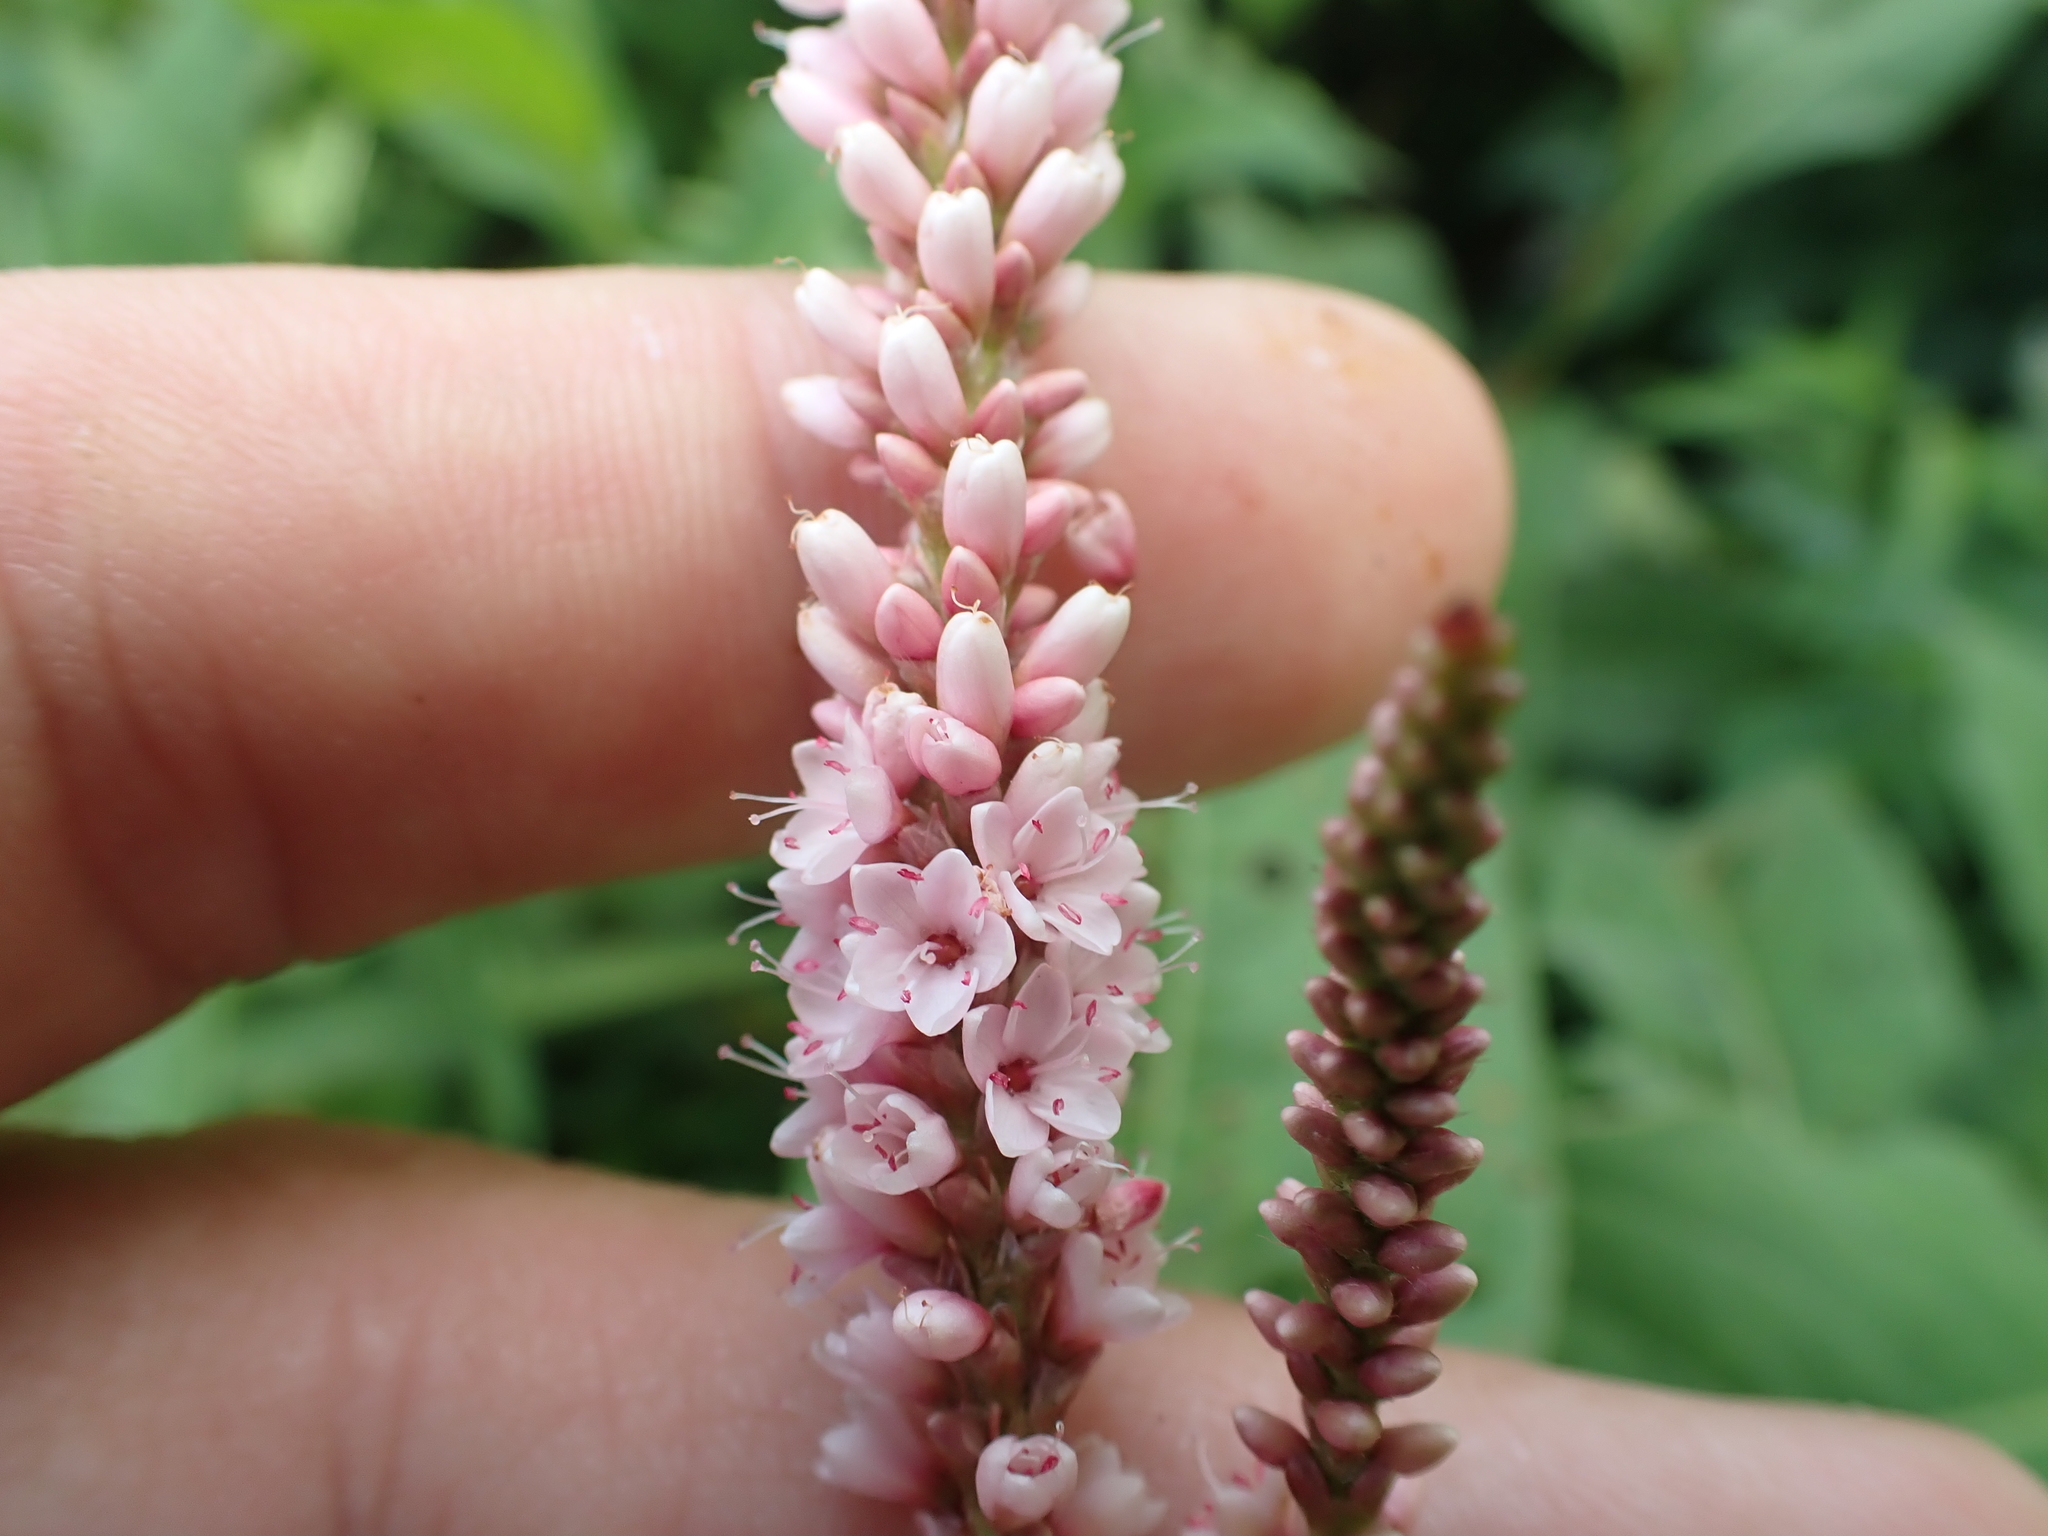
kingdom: Plantae
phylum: Tracheophyta
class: Magnoliopsida
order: Caryophyllales
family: Polygonaceae
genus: Persicaria
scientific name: Persicaria amphibia
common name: Amphibious bistort
